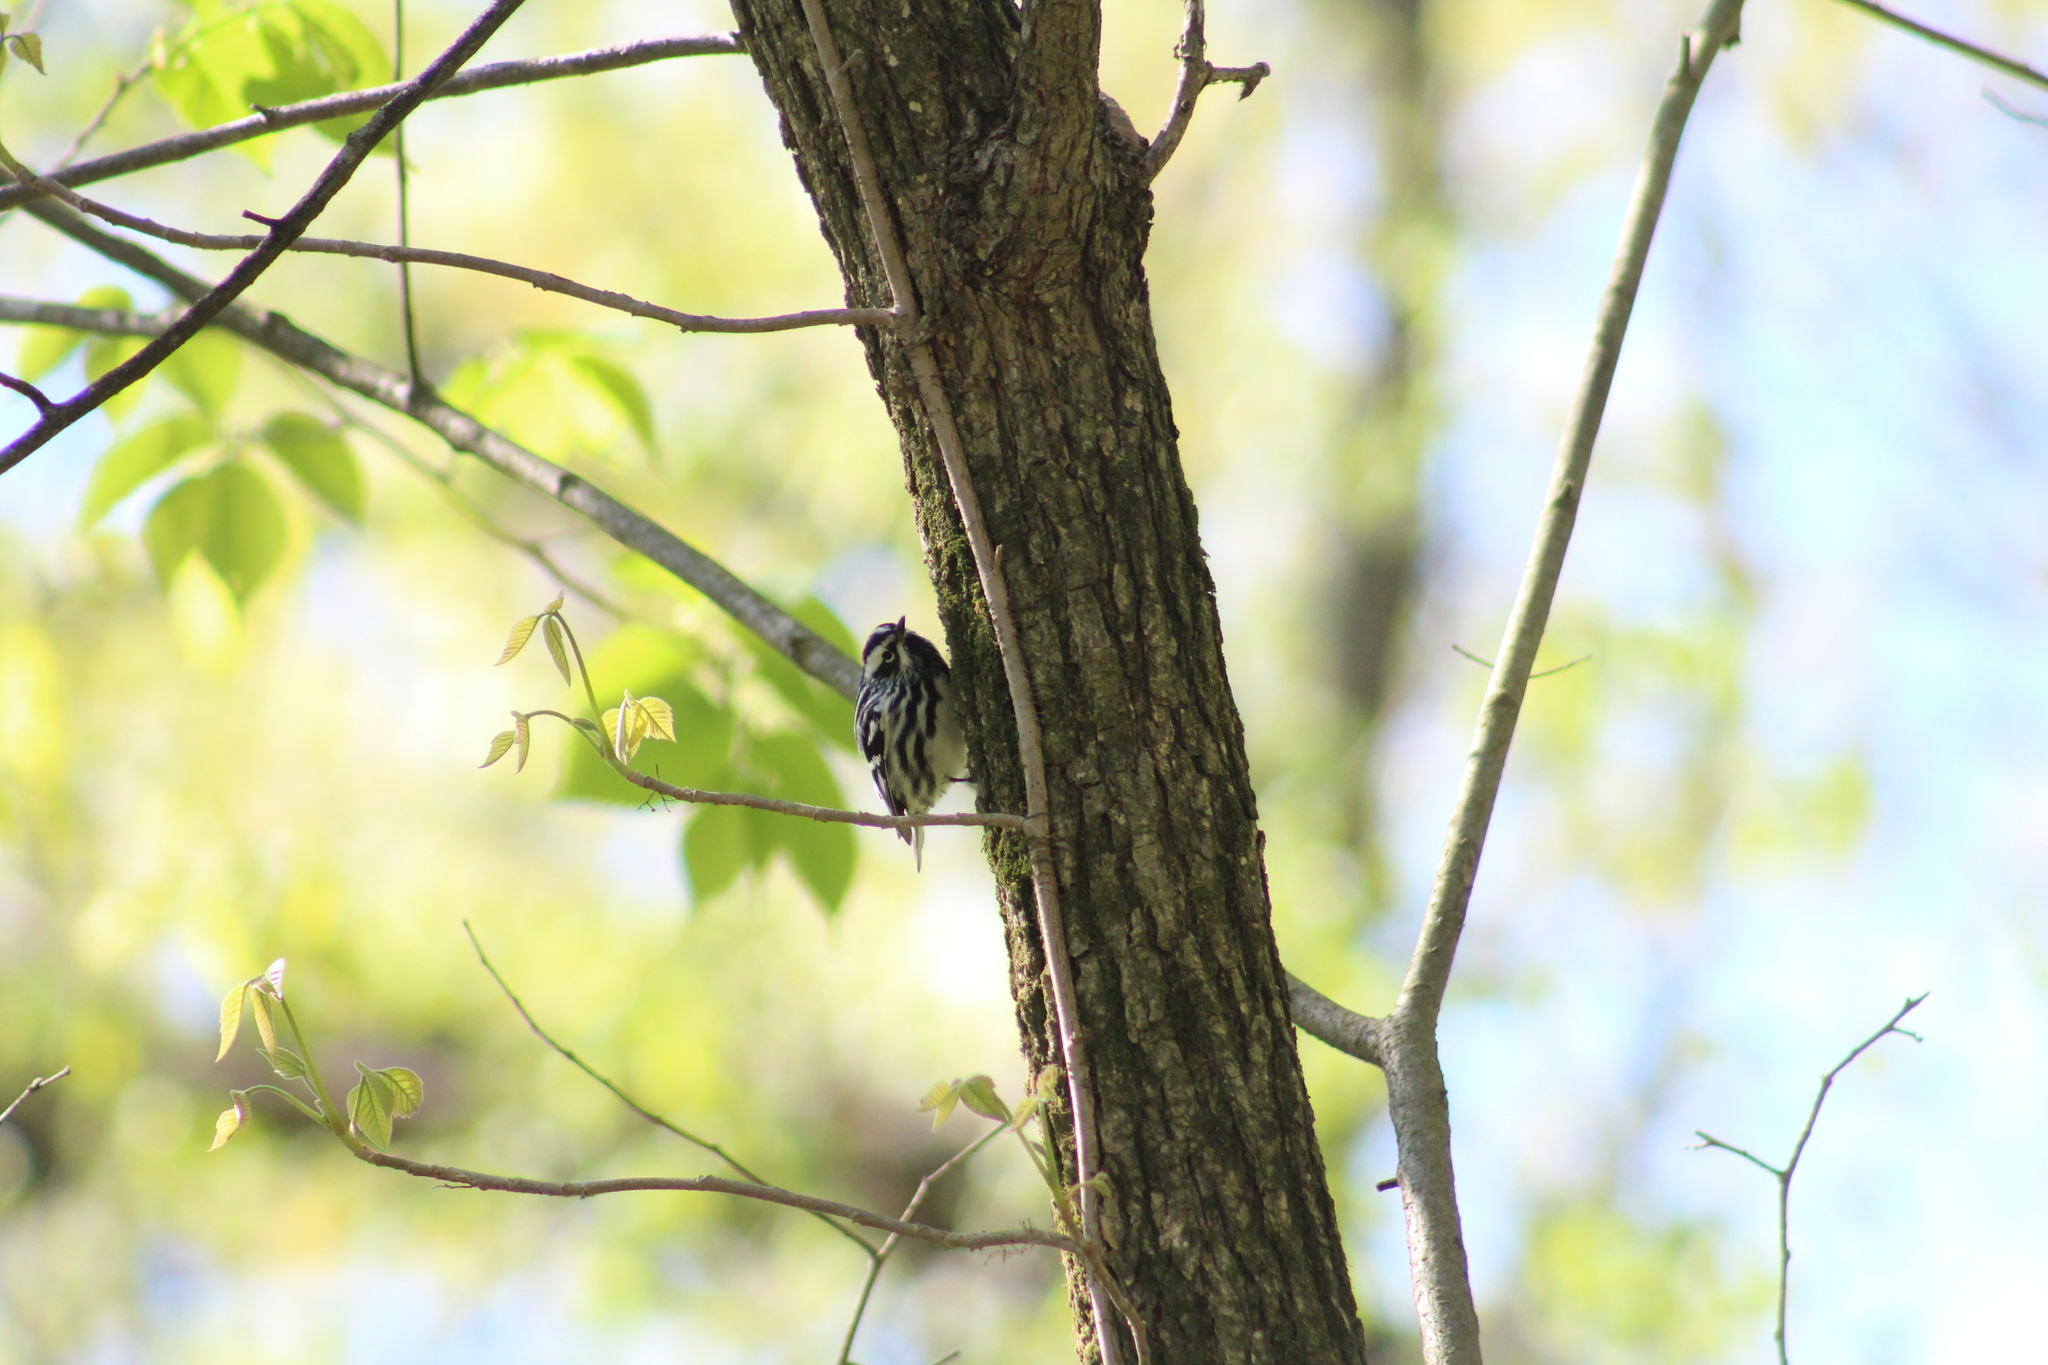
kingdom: Animalia
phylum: Chordata
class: Aves
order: Passeriformes
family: Parulidae
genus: Mniotilta
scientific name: Mniotilta varia
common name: Black-and-white warbler
